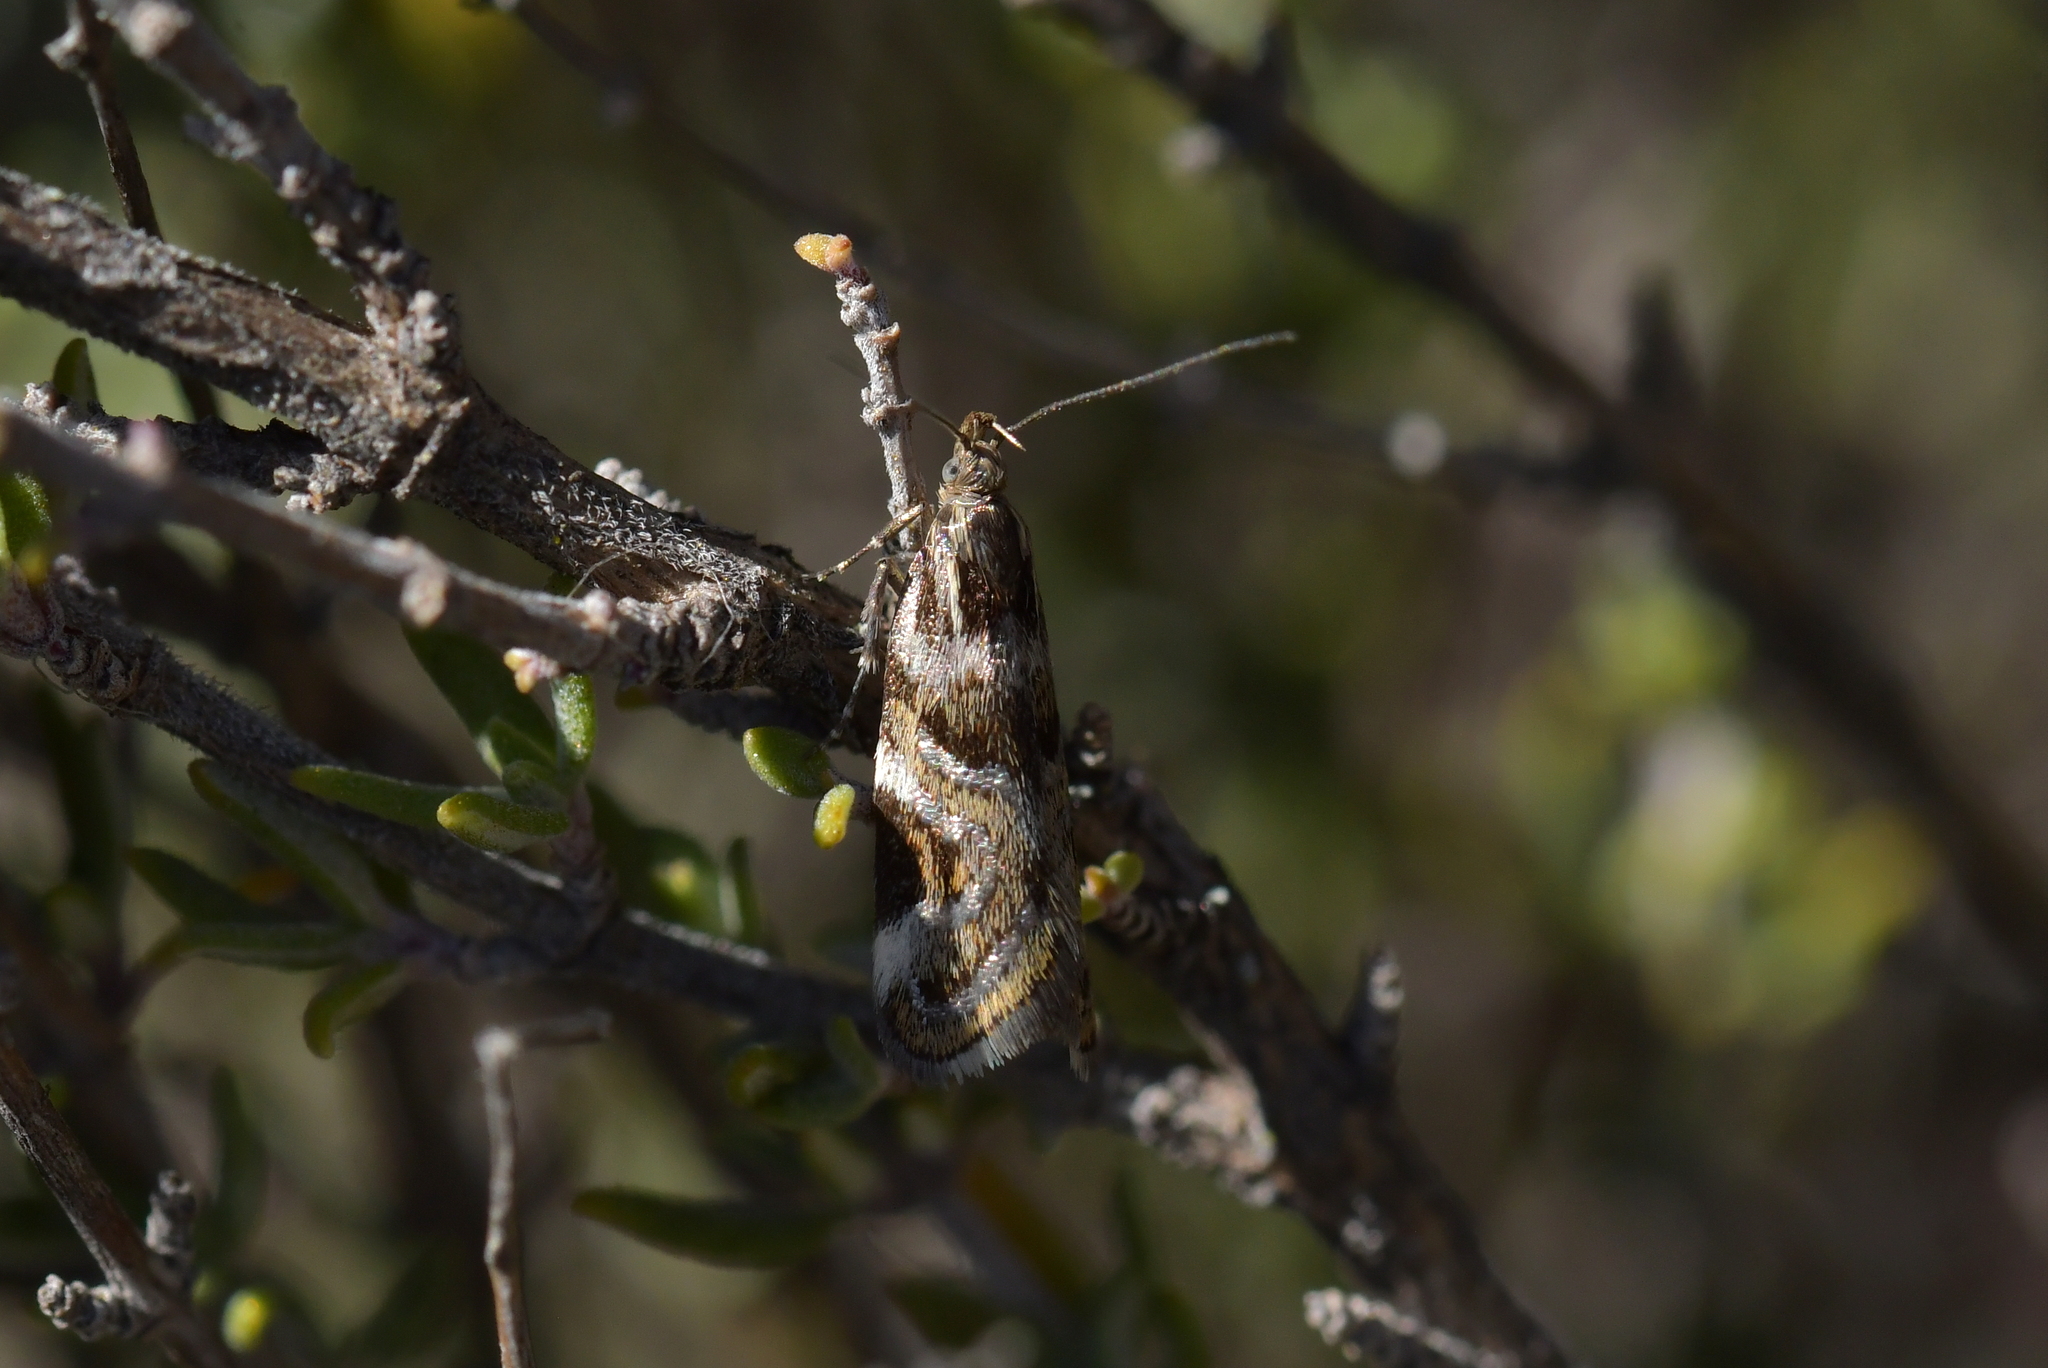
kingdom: Animalia
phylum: Arthropoda
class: Insecta
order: Lepidoptera
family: Oecophoridae
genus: Hierodoris
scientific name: Hierodoris s-fractum
